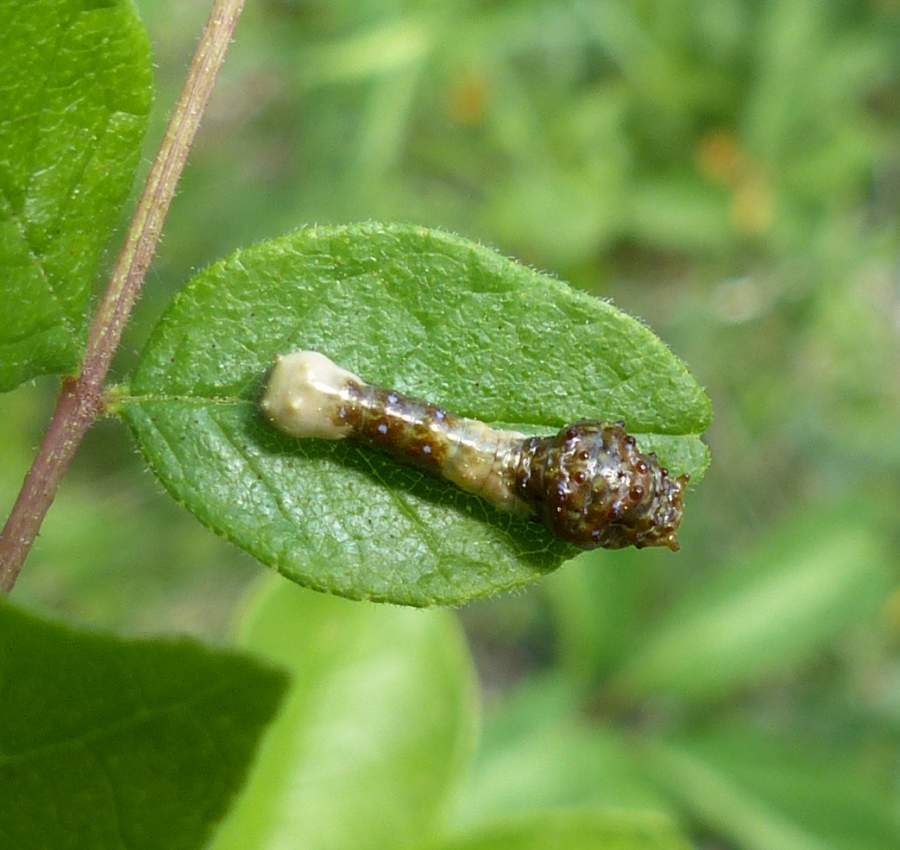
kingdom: Animalia
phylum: Arthropoda
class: Insecta
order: Lepidoptera
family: Papilionidae
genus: Papilio
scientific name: Papilio cresphontes
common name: Giant swallowtail
